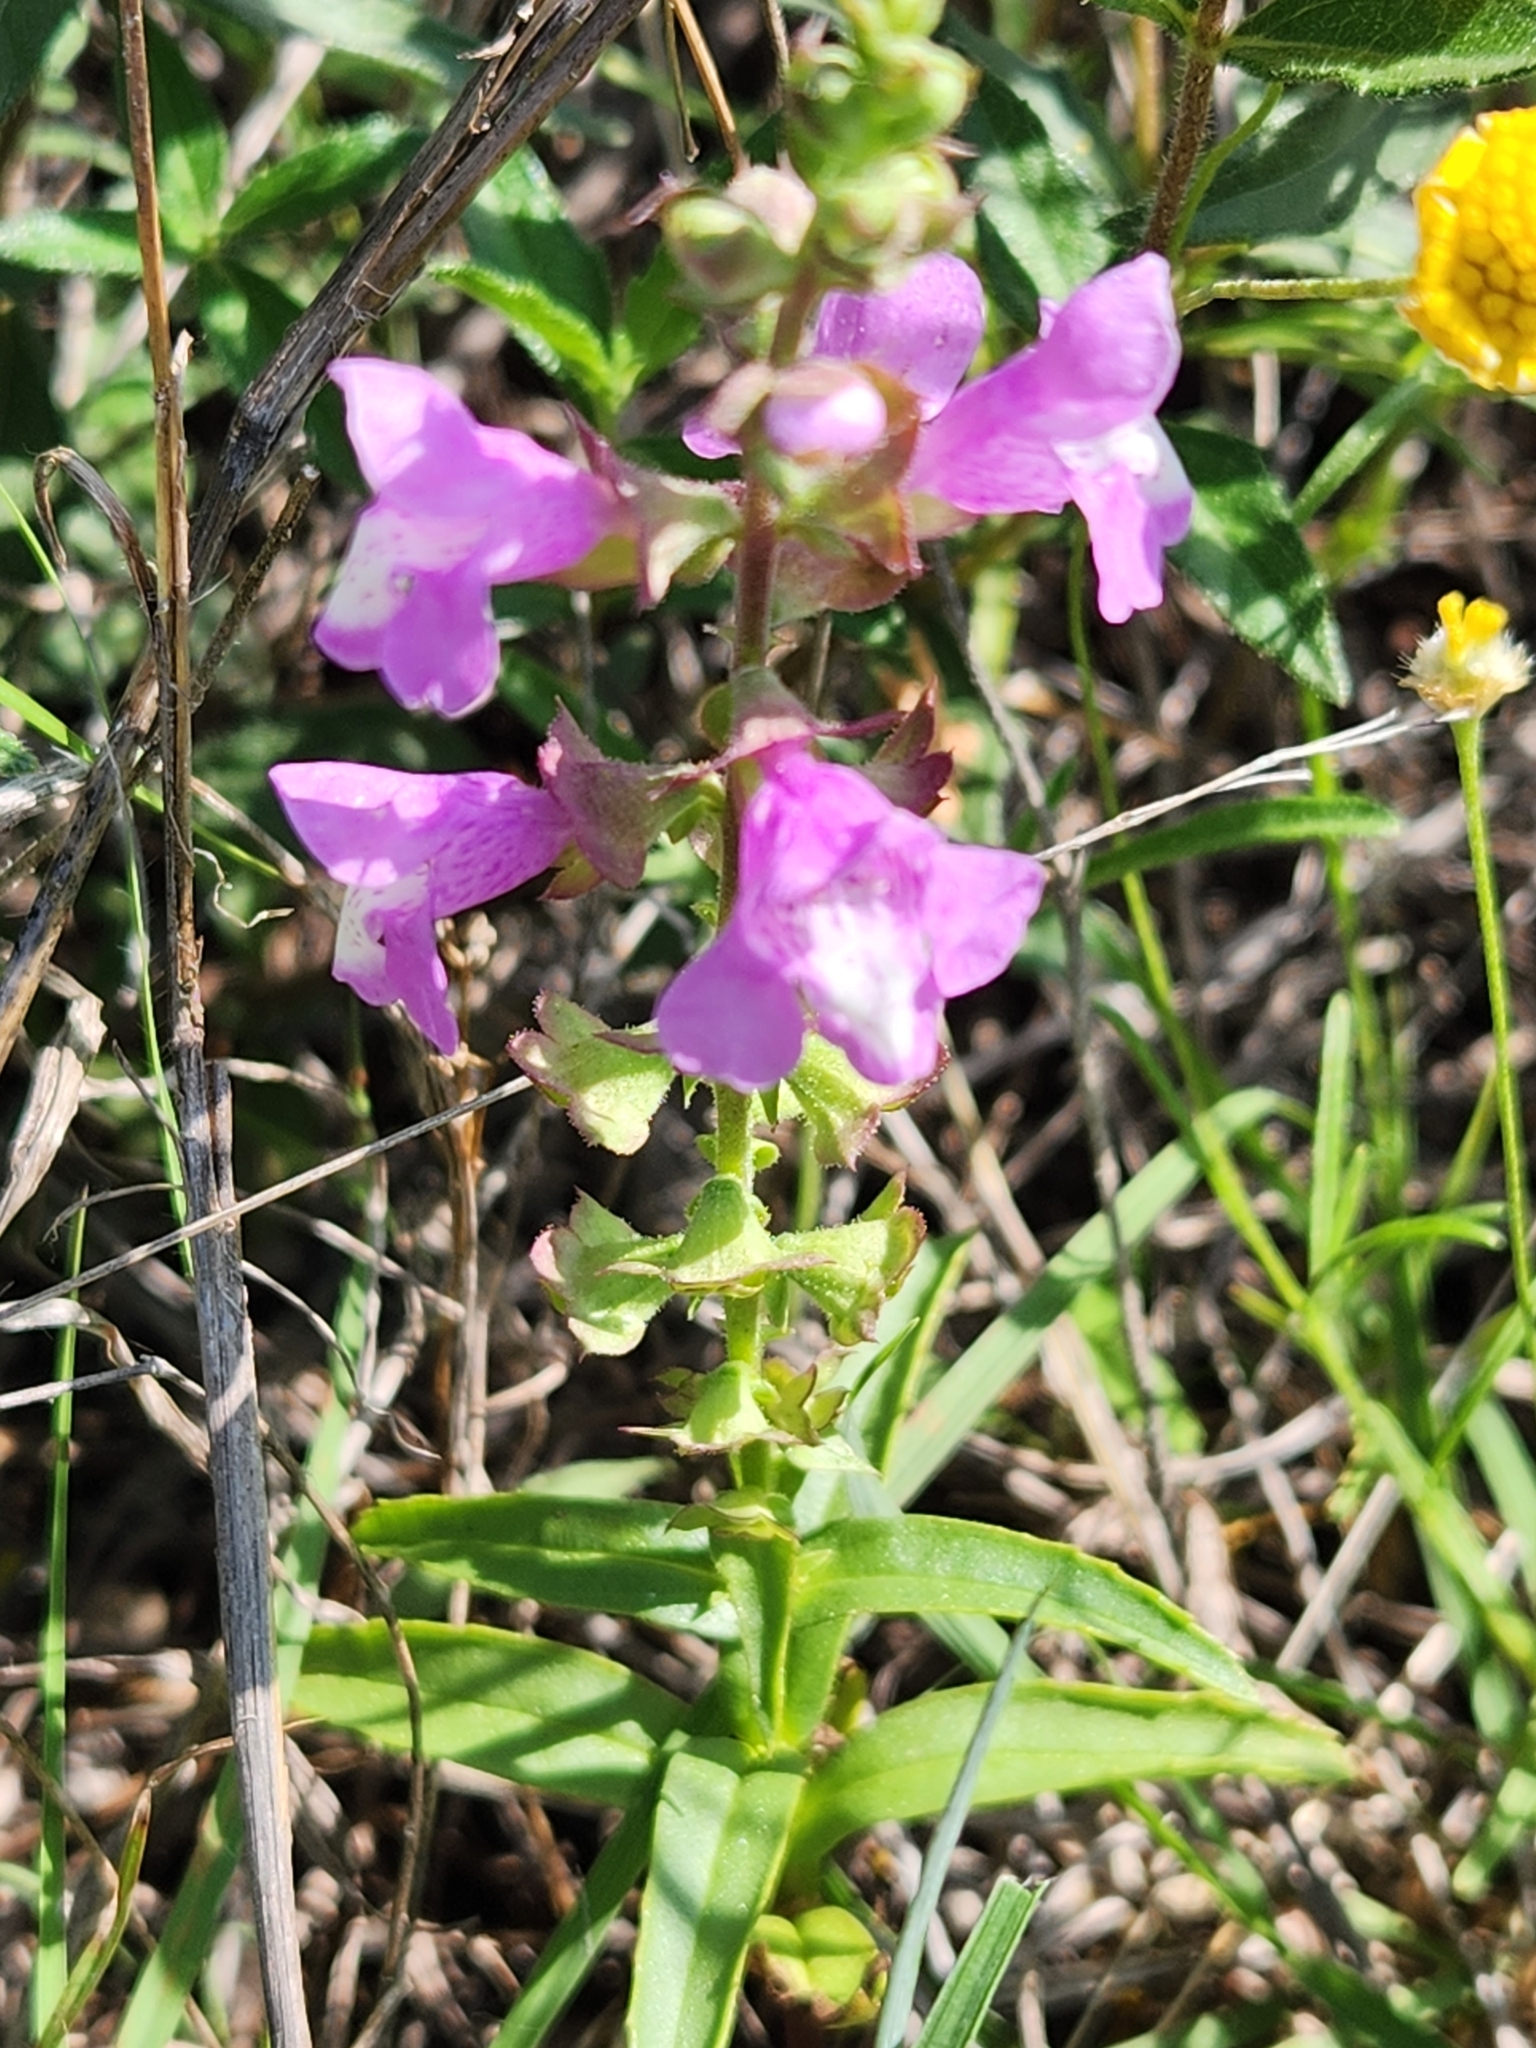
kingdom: Plantae
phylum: Tracheophyta
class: Magnoliopsida
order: Lamiales
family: Lamiaceae
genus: Warnockia
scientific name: Warnockia scutellarioides
